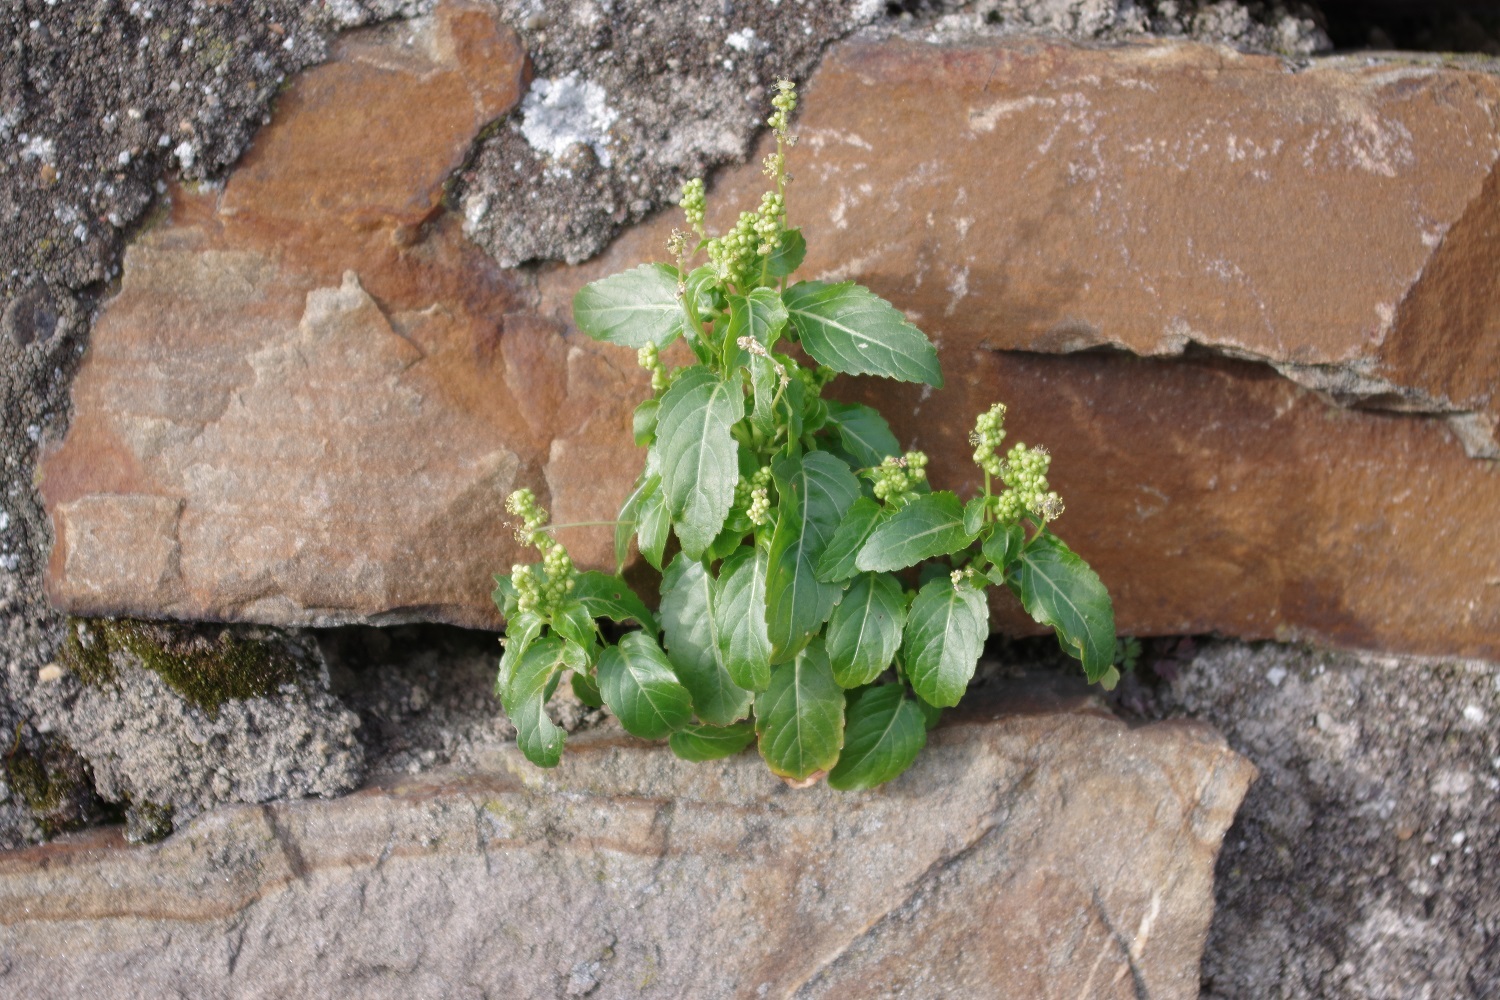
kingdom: Plantae
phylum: Tracheophyta
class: Magnoliopsida
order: Malpighiales
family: Euphorbiaceae
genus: Mercurialis
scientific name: Mercurialis annua
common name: Annual mercury
